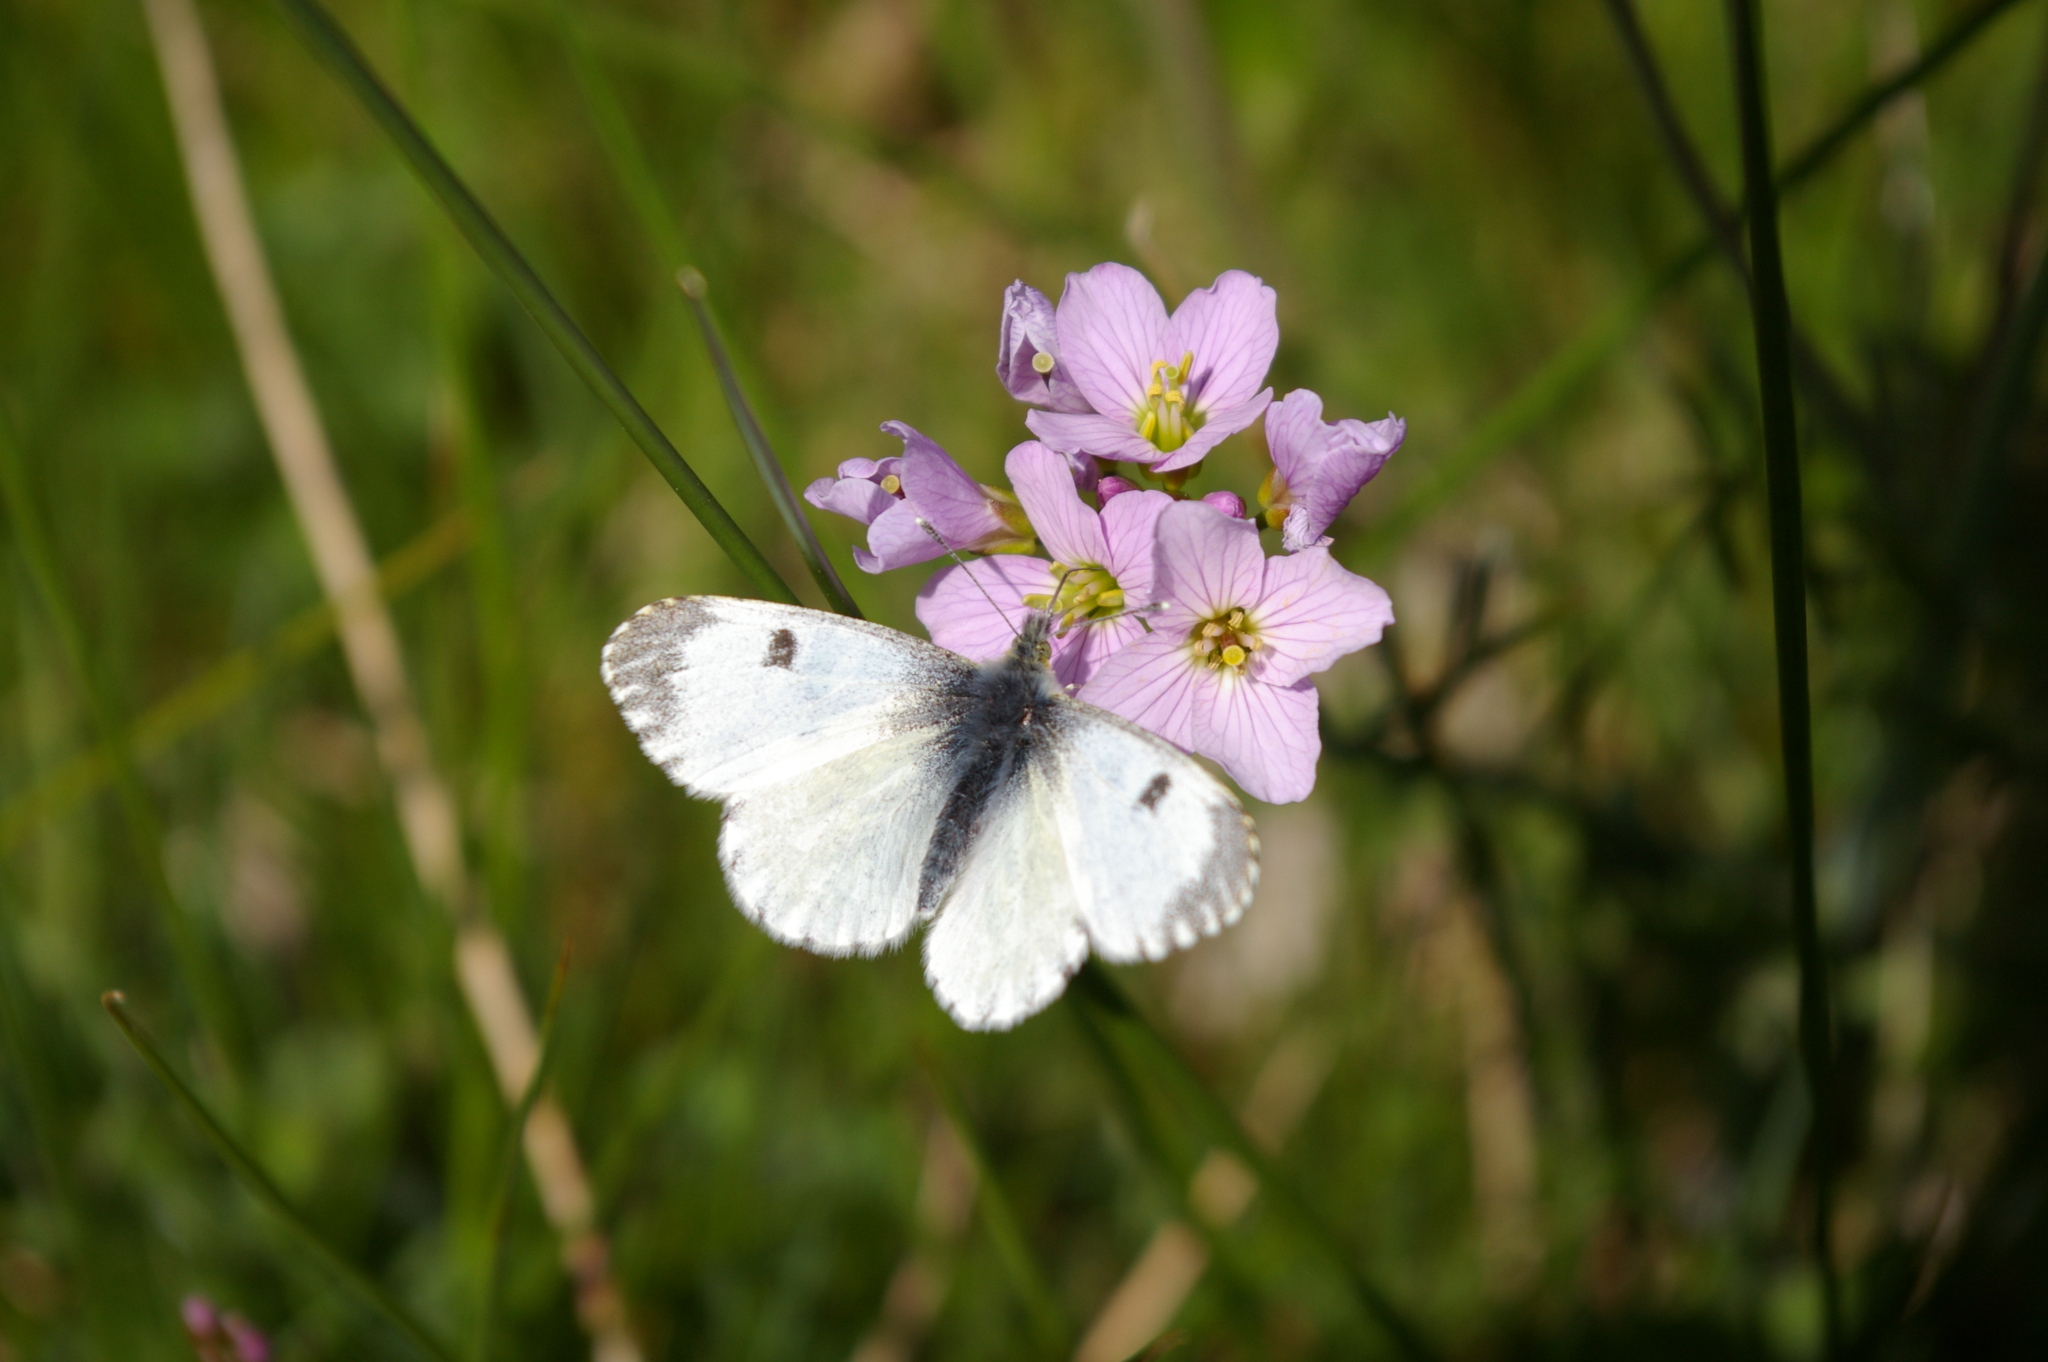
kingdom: Animalia
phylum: Arthropoda
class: Insecta
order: Lepidoptera
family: Pieridae
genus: Anthocharis
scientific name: Anthocharis cardamines
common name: Orange-tip
